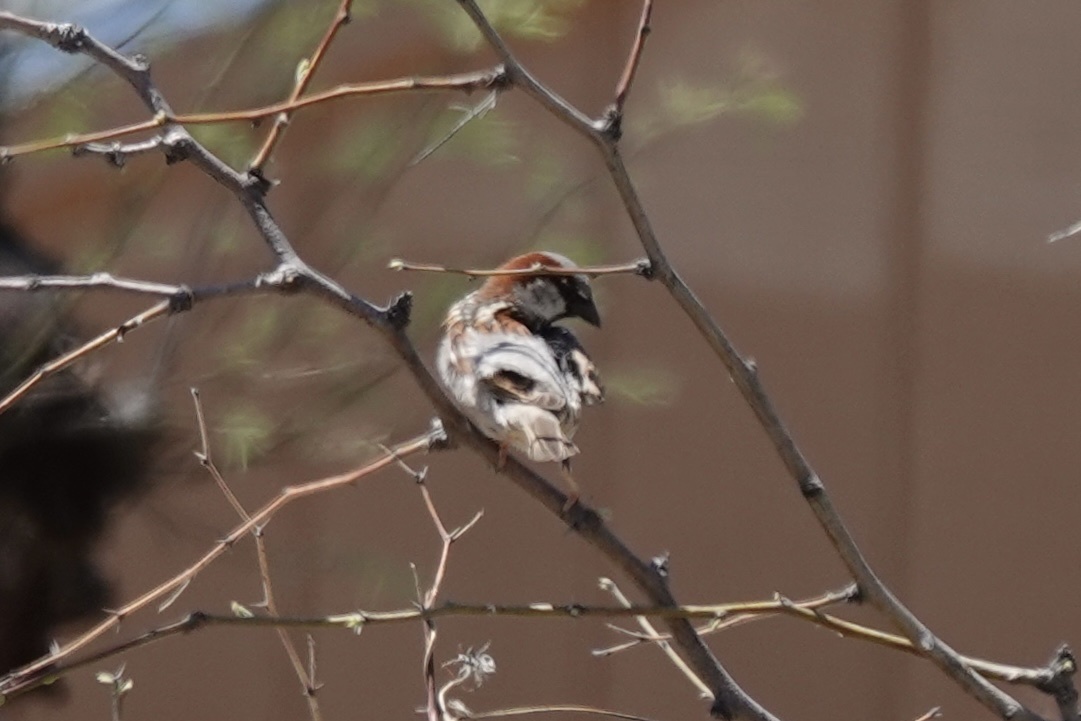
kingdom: Animalia
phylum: Chordata
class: Aves
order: Passeriformes
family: Passeridae
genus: Passer
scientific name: Passer domesticus
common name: House sparrow
